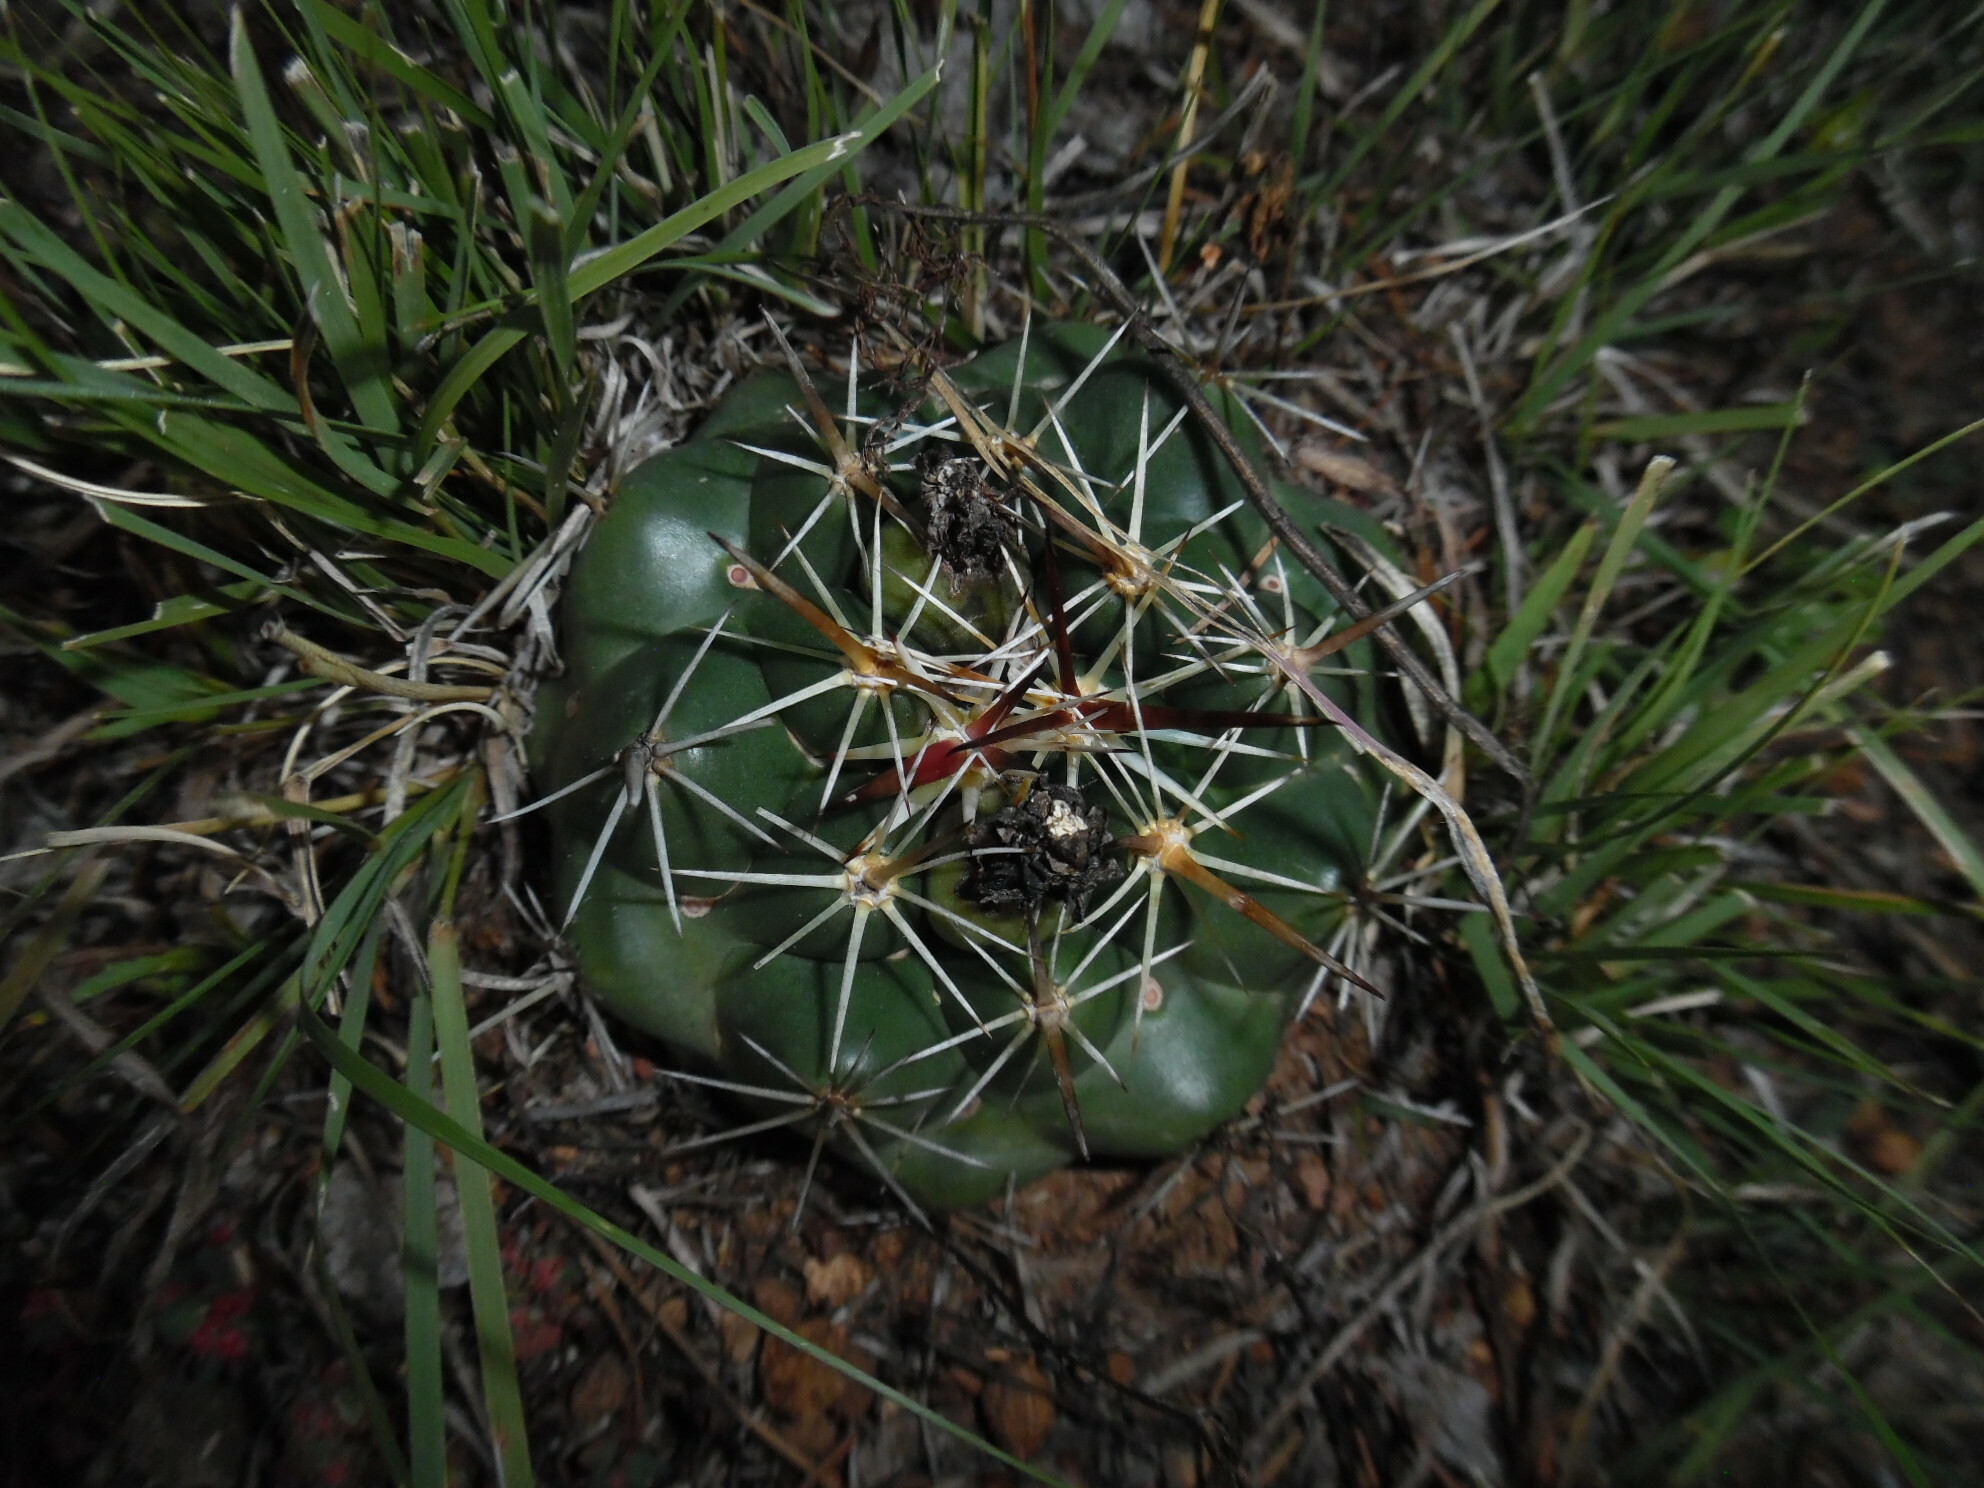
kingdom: Plantae
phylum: Tracheophyta
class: Magnoliopsida
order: Caryophyllales
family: Cactaceae
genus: Coryphantha
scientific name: Coryphantha ottonis
